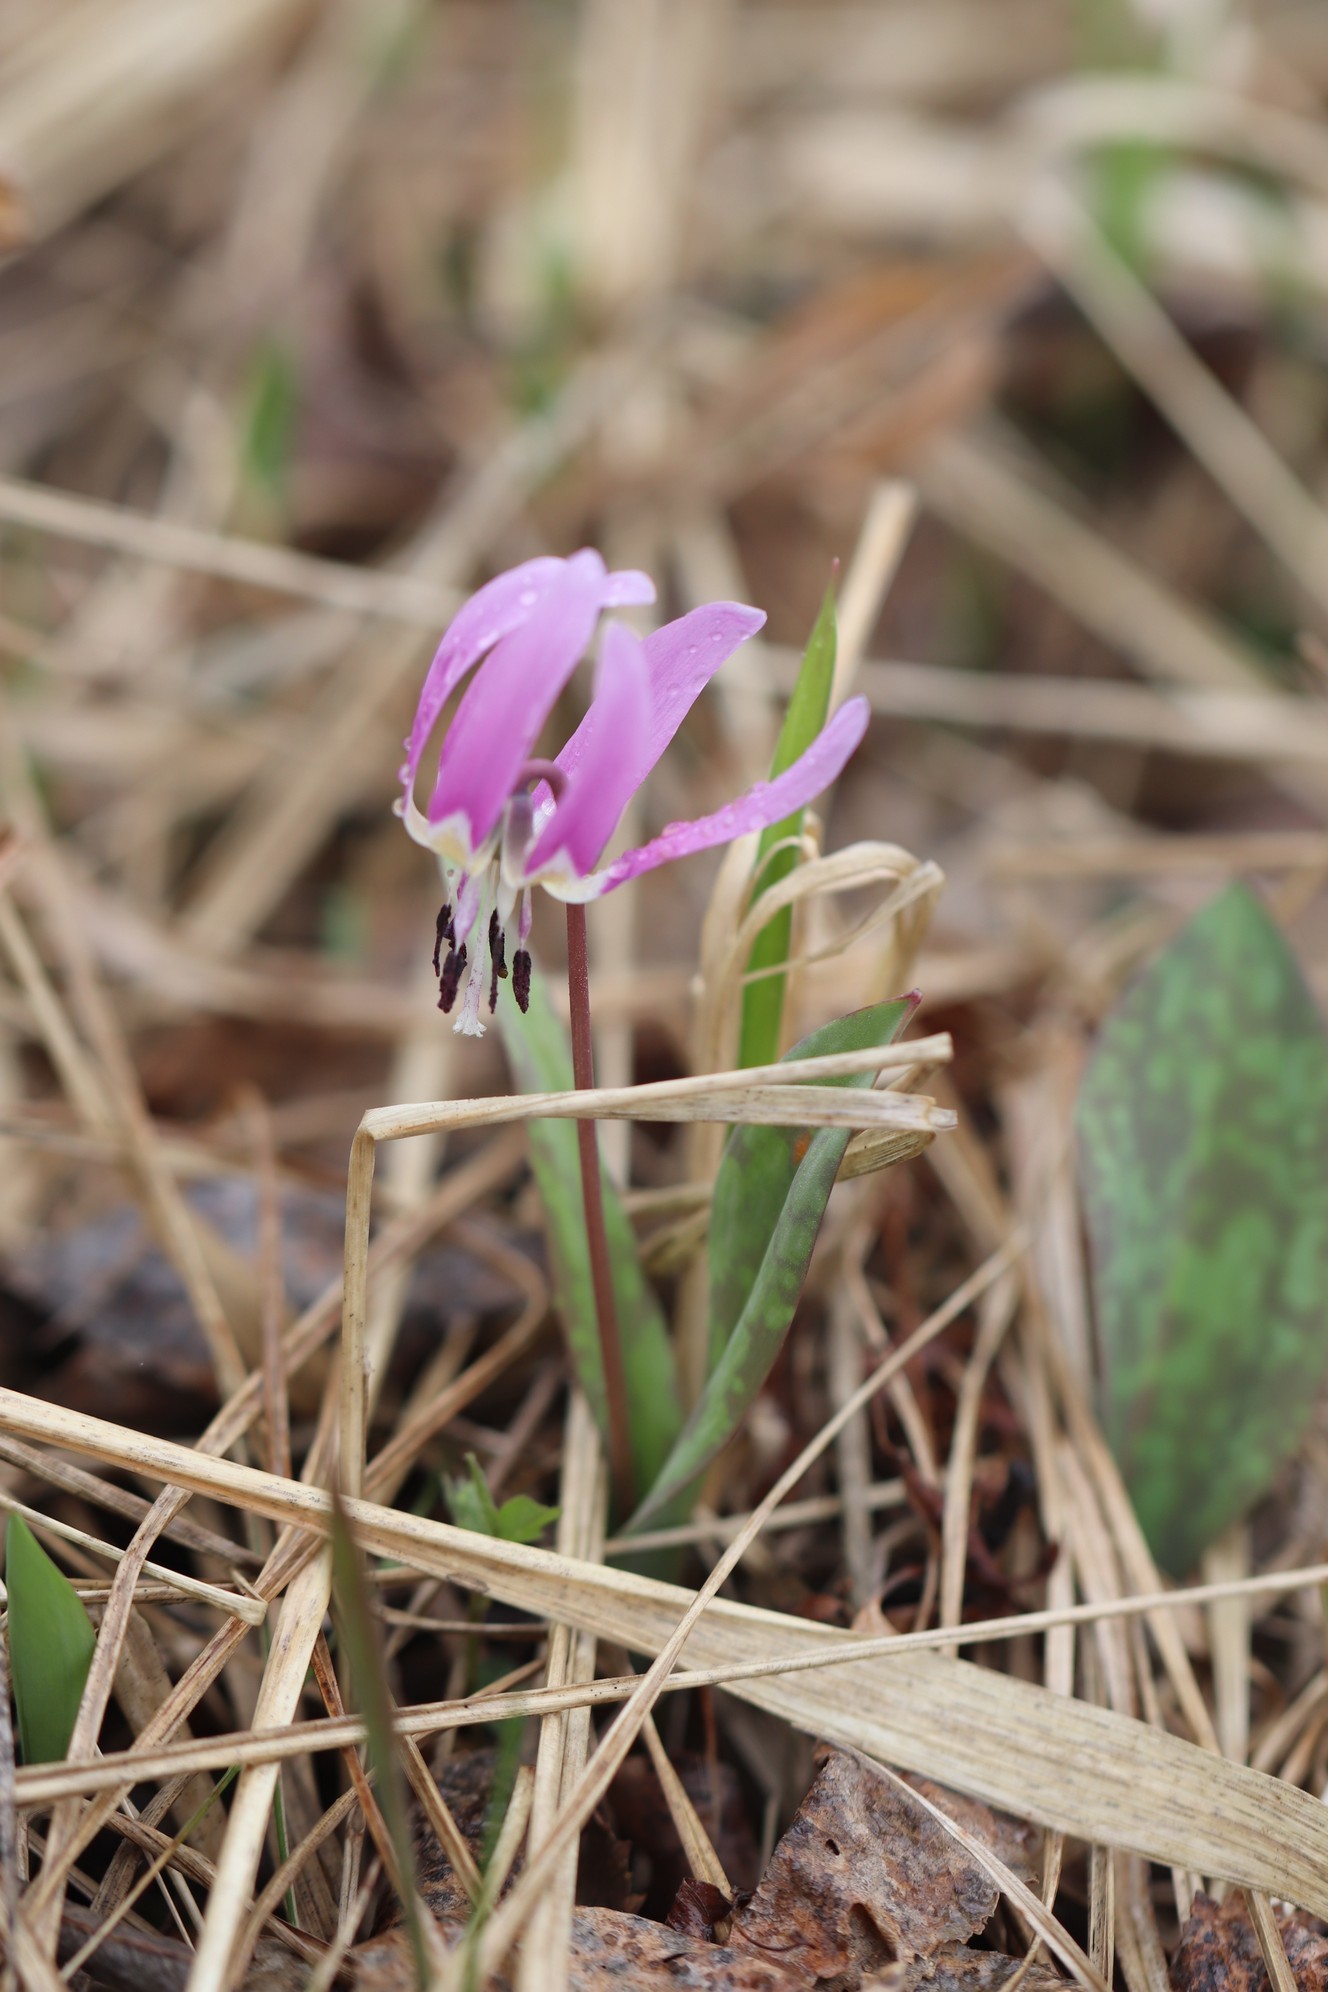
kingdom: Plantae
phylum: Tracheophyta
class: Liliopsida
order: Liliales
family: Liliaceae
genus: Erythronium
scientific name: Erythronium sulevii
